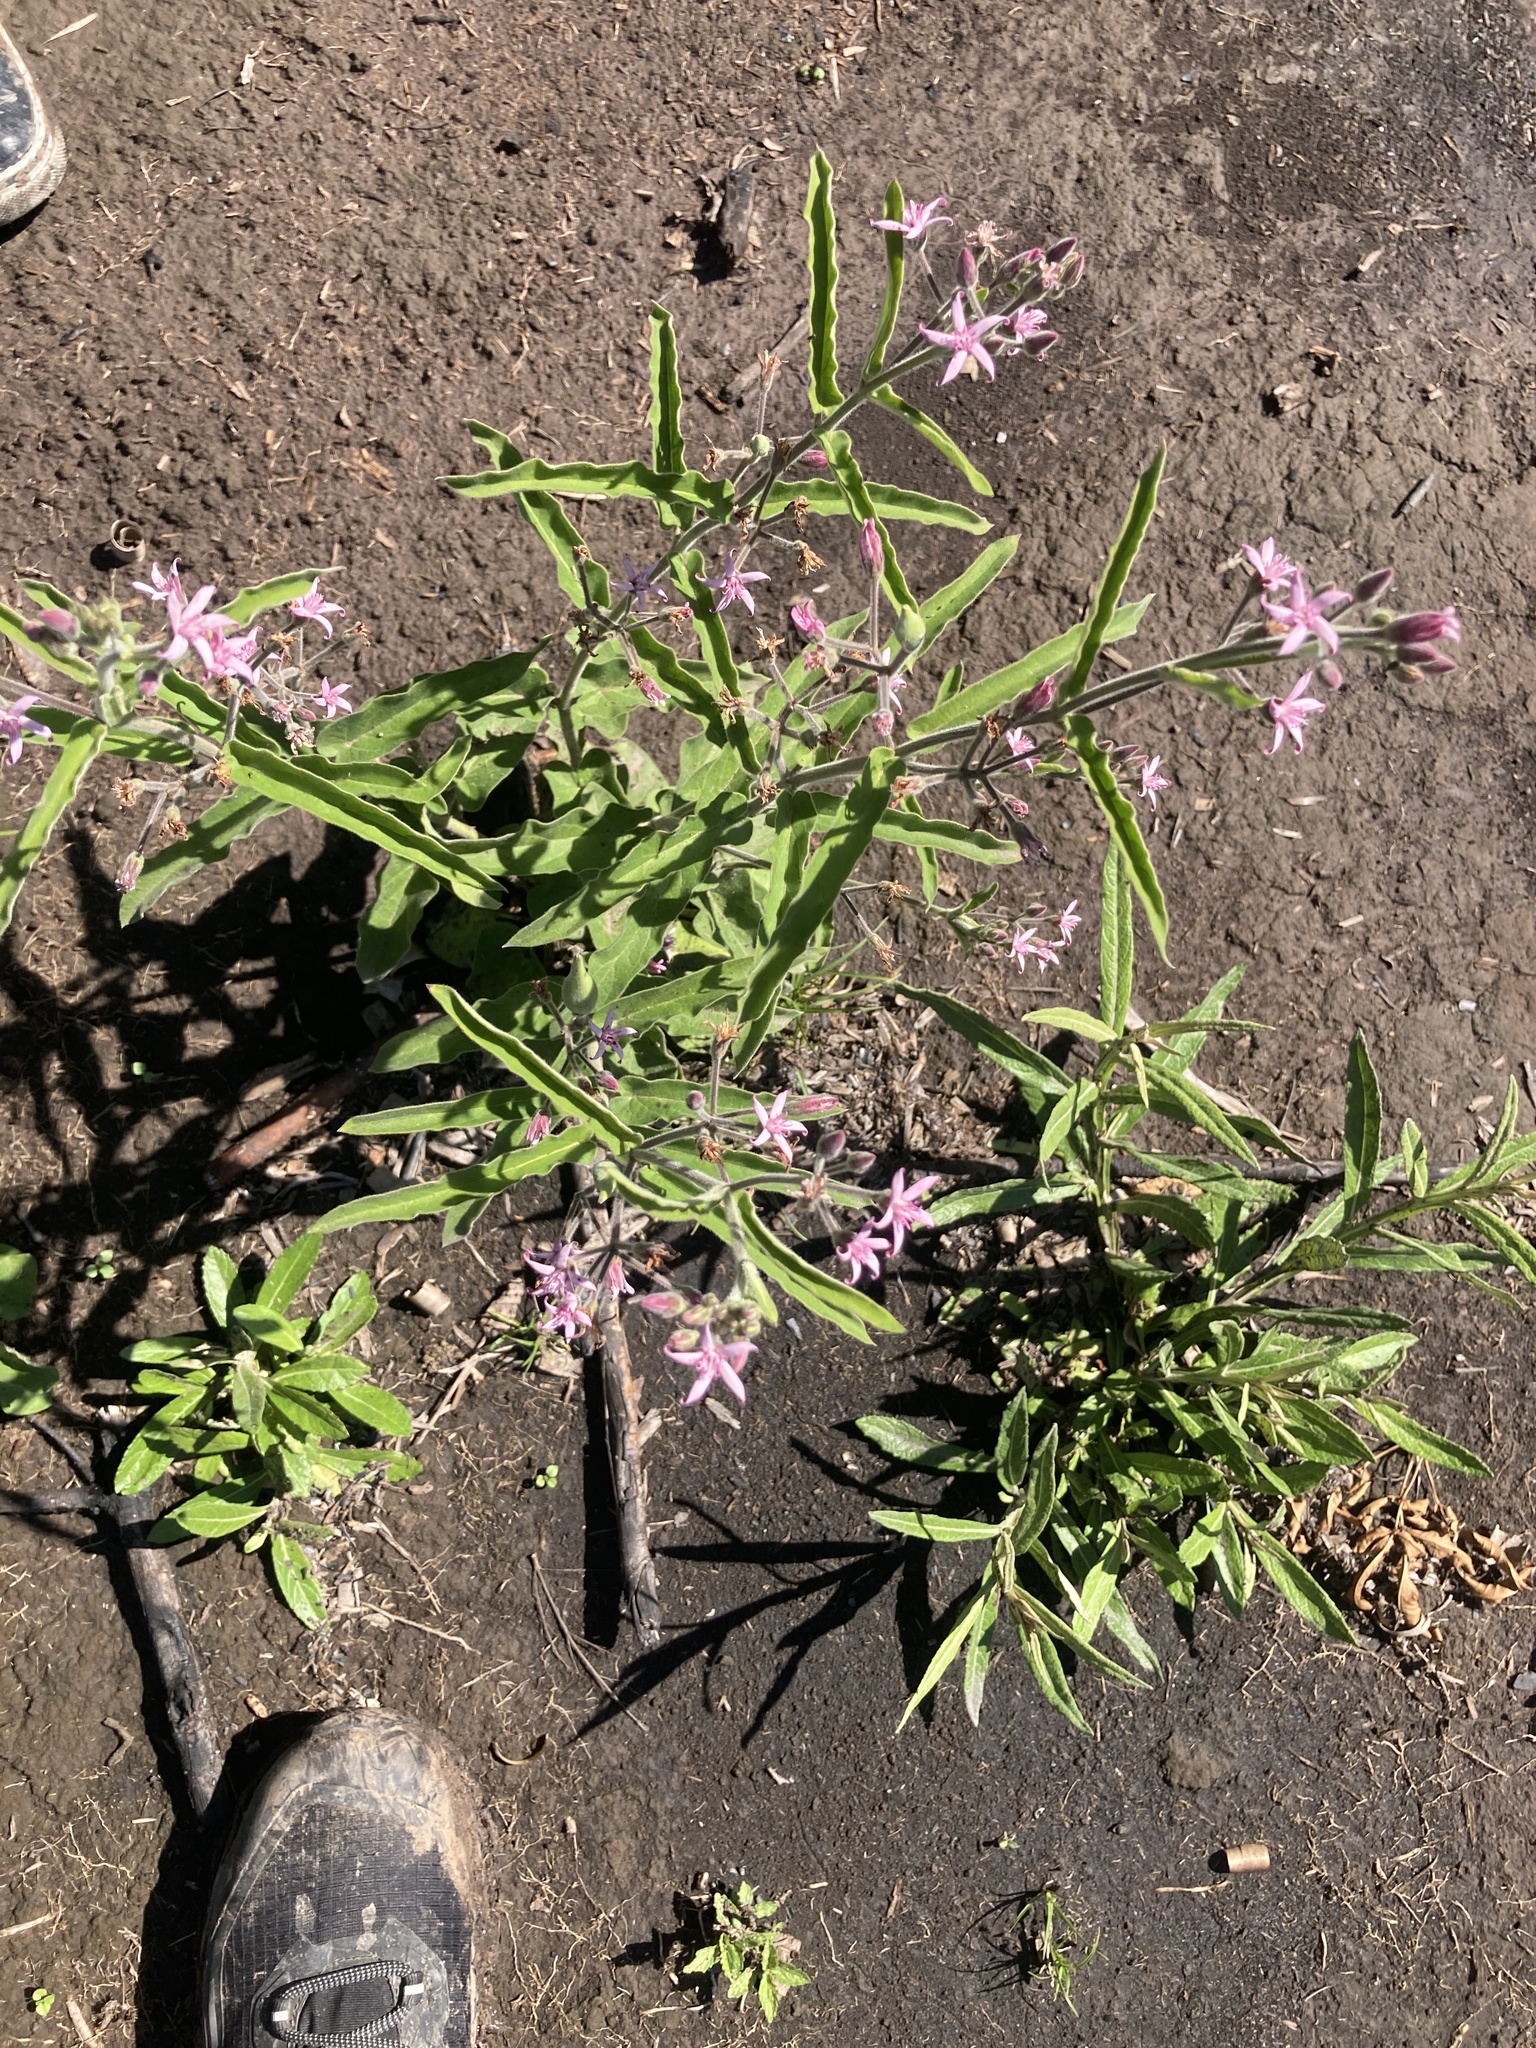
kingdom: Plantae
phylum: Tracheophyta
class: Magnoliopsida
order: Gentianales
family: Apocynaceae
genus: Oxypetalum
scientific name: Oxypetalum solanoides
